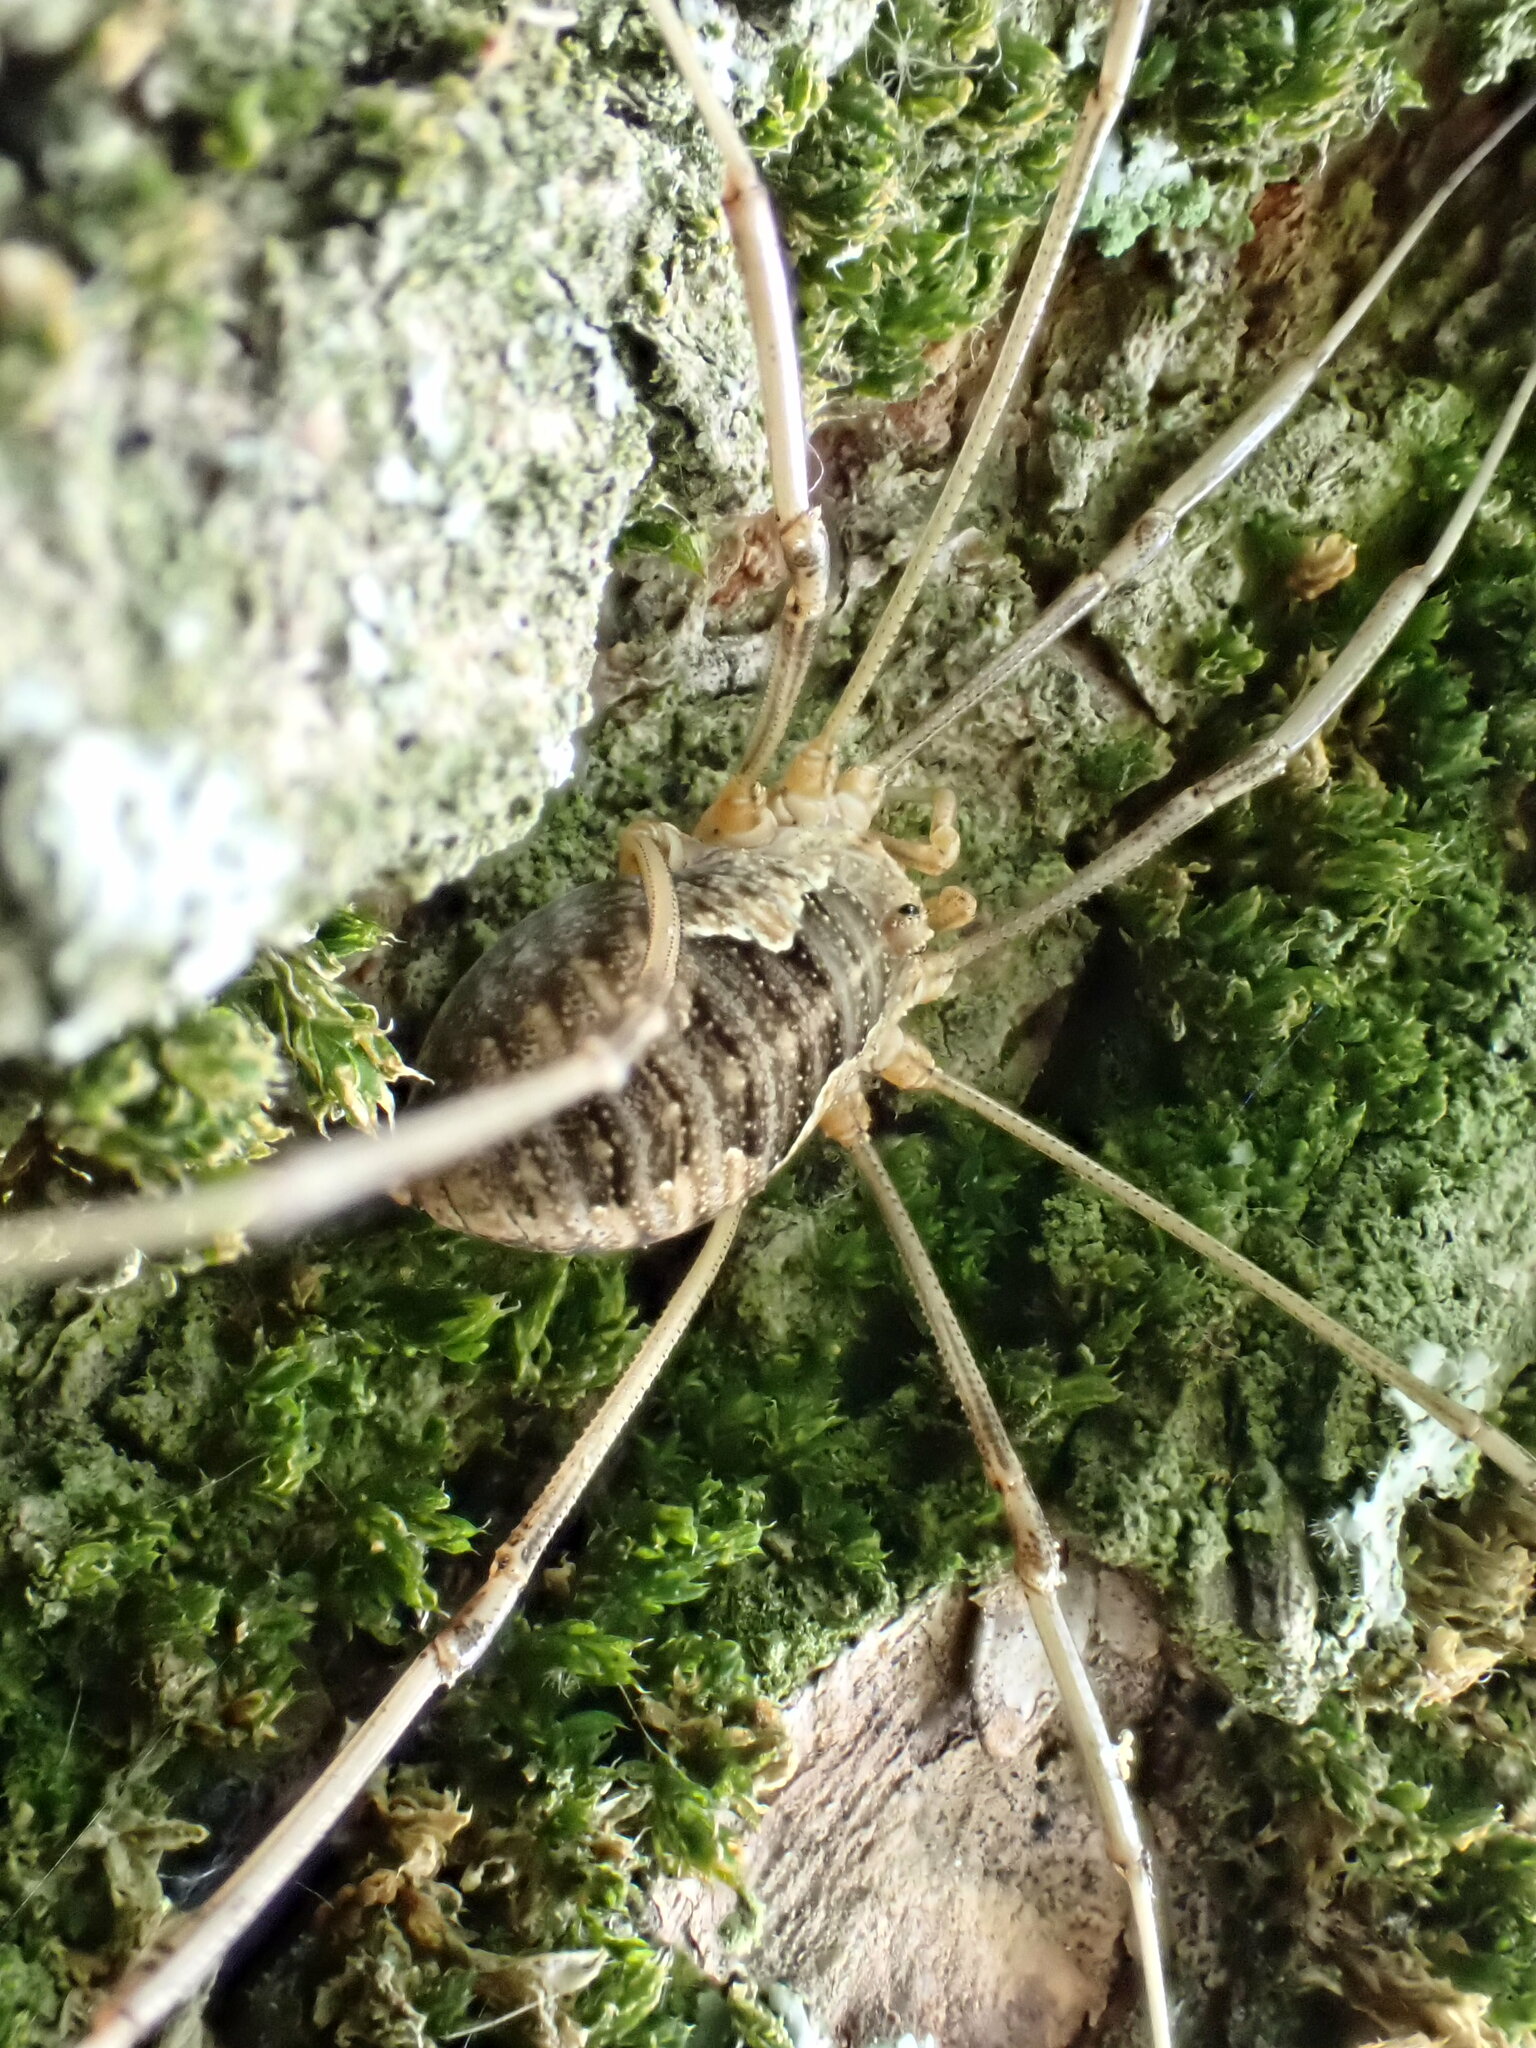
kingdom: Animalia
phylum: Arthropoda
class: Arachnida
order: Opiliones
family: Phalangiidae
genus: Phalangium
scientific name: Phalangium opilio
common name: Daddy longleg
